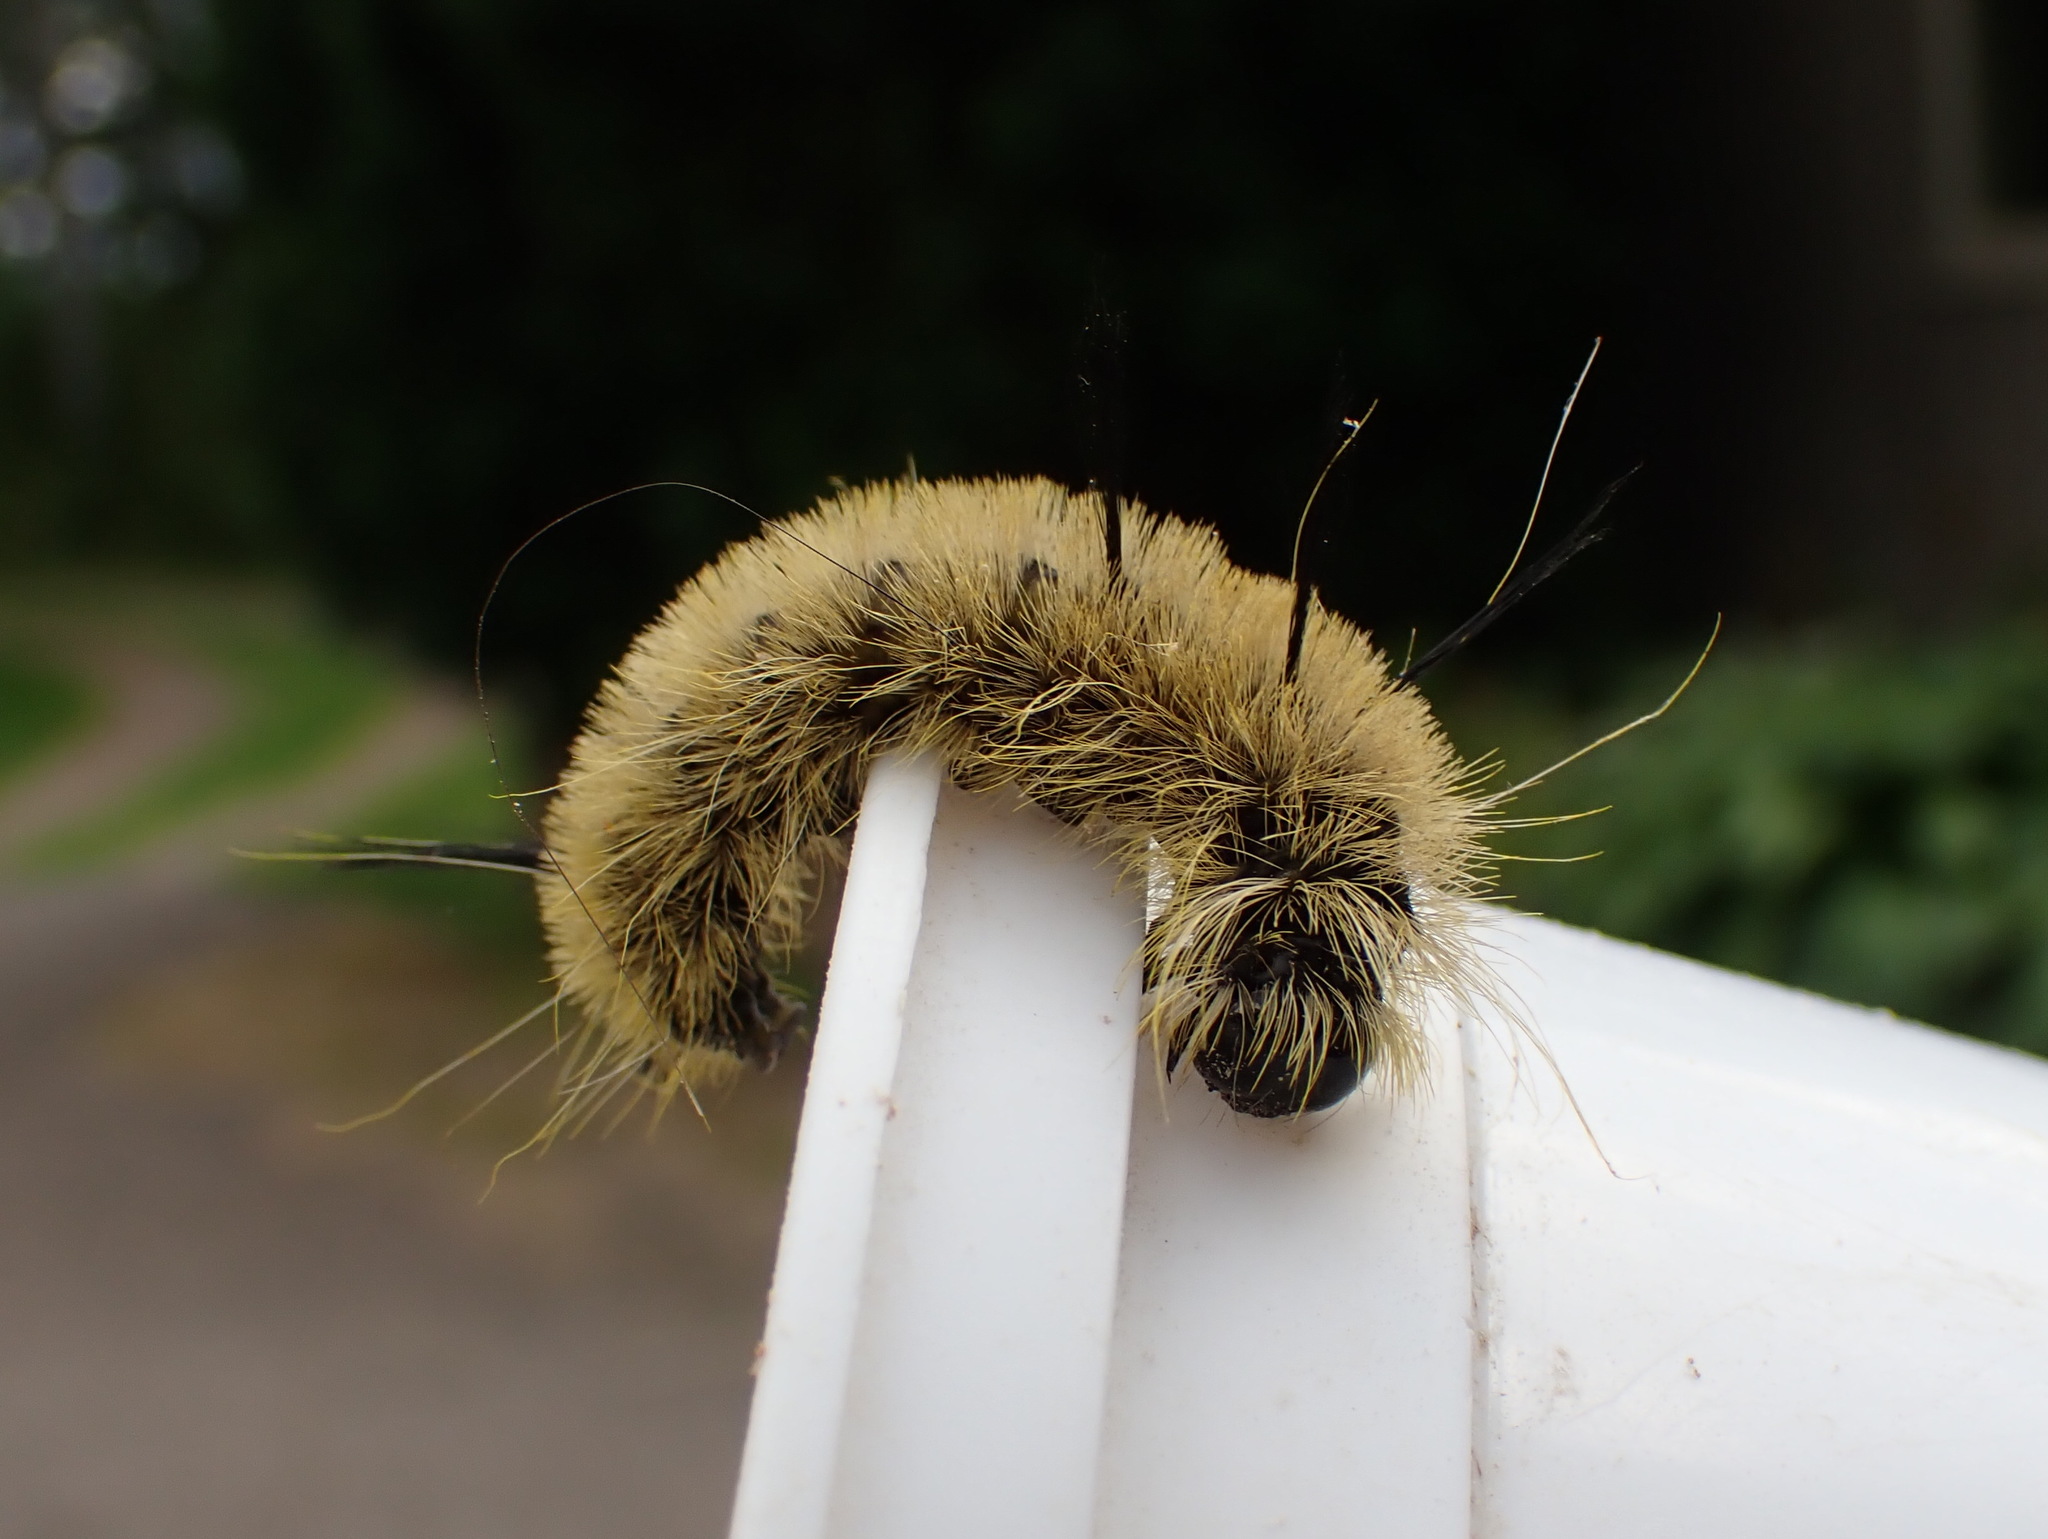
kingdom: Animalia
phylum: Arthropoda
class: Insecta
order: Lepidoptera
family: Noctuidae
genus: Acronicta
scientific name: Acronicta americana
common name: American dagger
